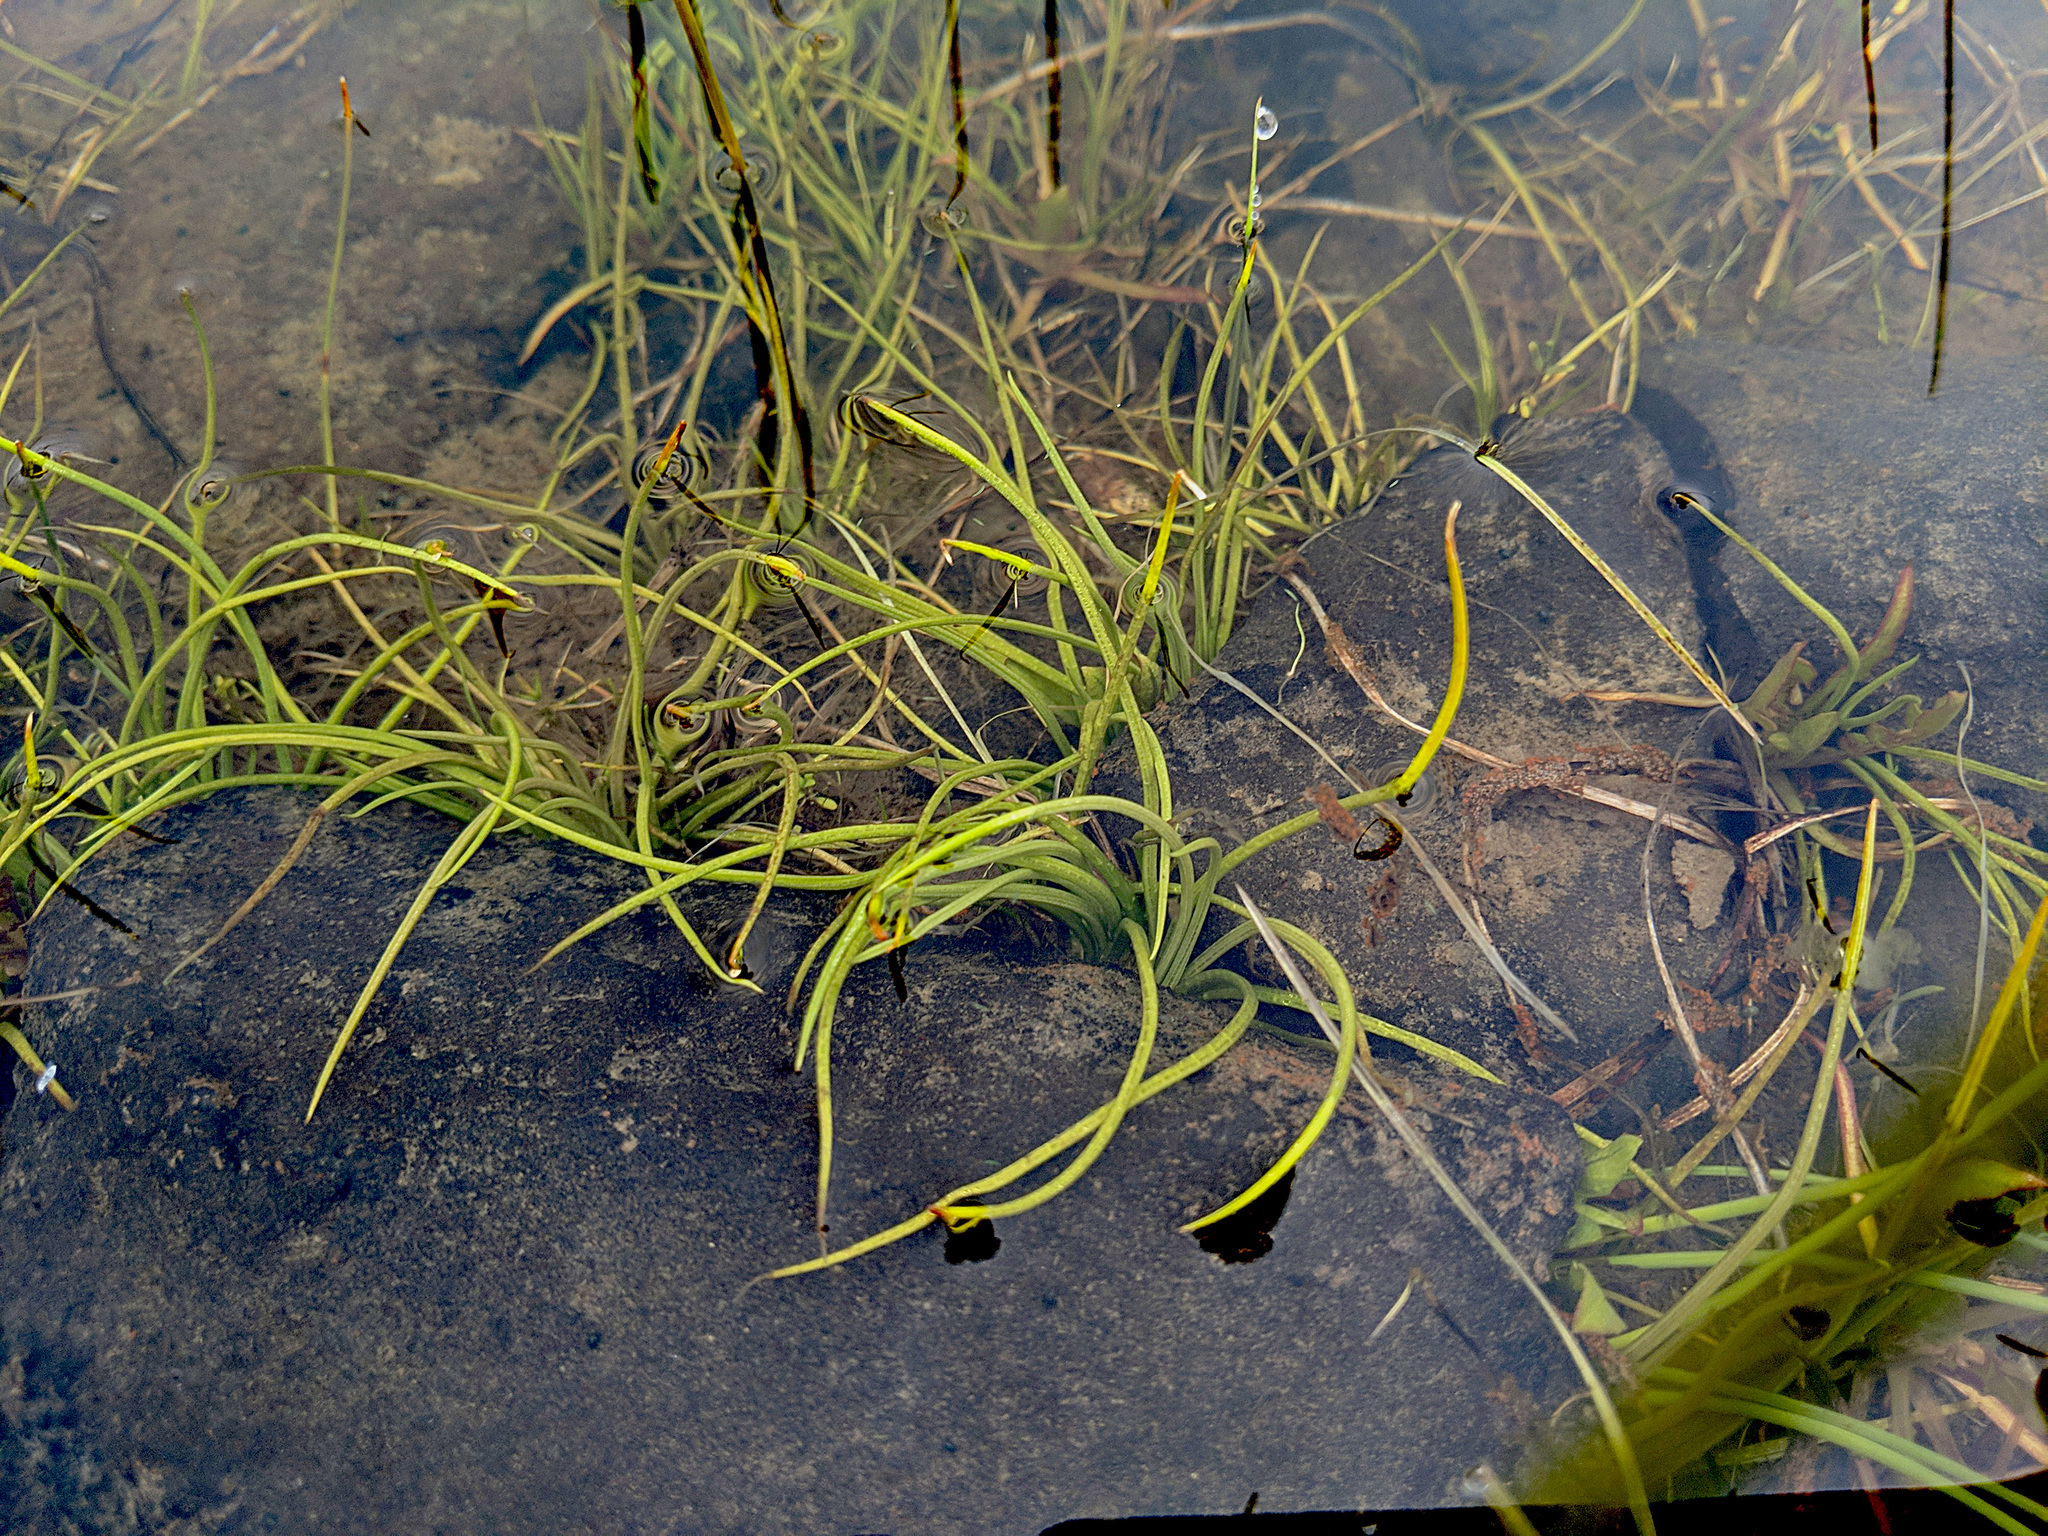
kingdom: Plantae
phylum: Tracheophyta
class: Lycopodiopsida
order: Isoetales
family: Isoetaceae
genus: Isoetes
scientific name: Isoetes howellii
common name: Howell's quillwort
